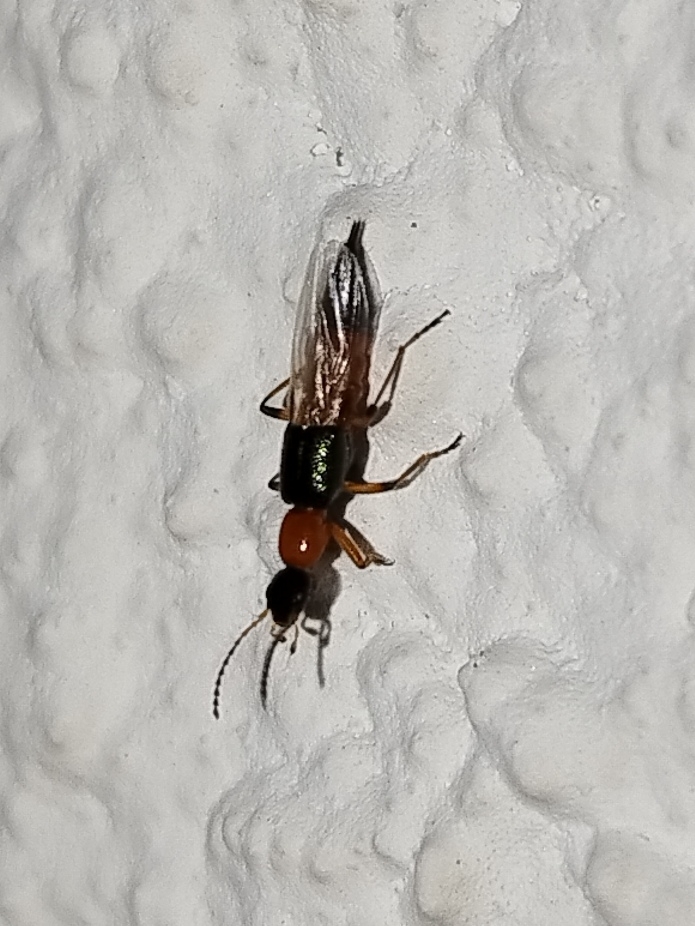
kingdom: Animalia
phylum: Arthropoda
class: Insecta
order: Coleoptera
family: Staphylinidae
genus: Paederus
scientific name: Paederus fuscipes
